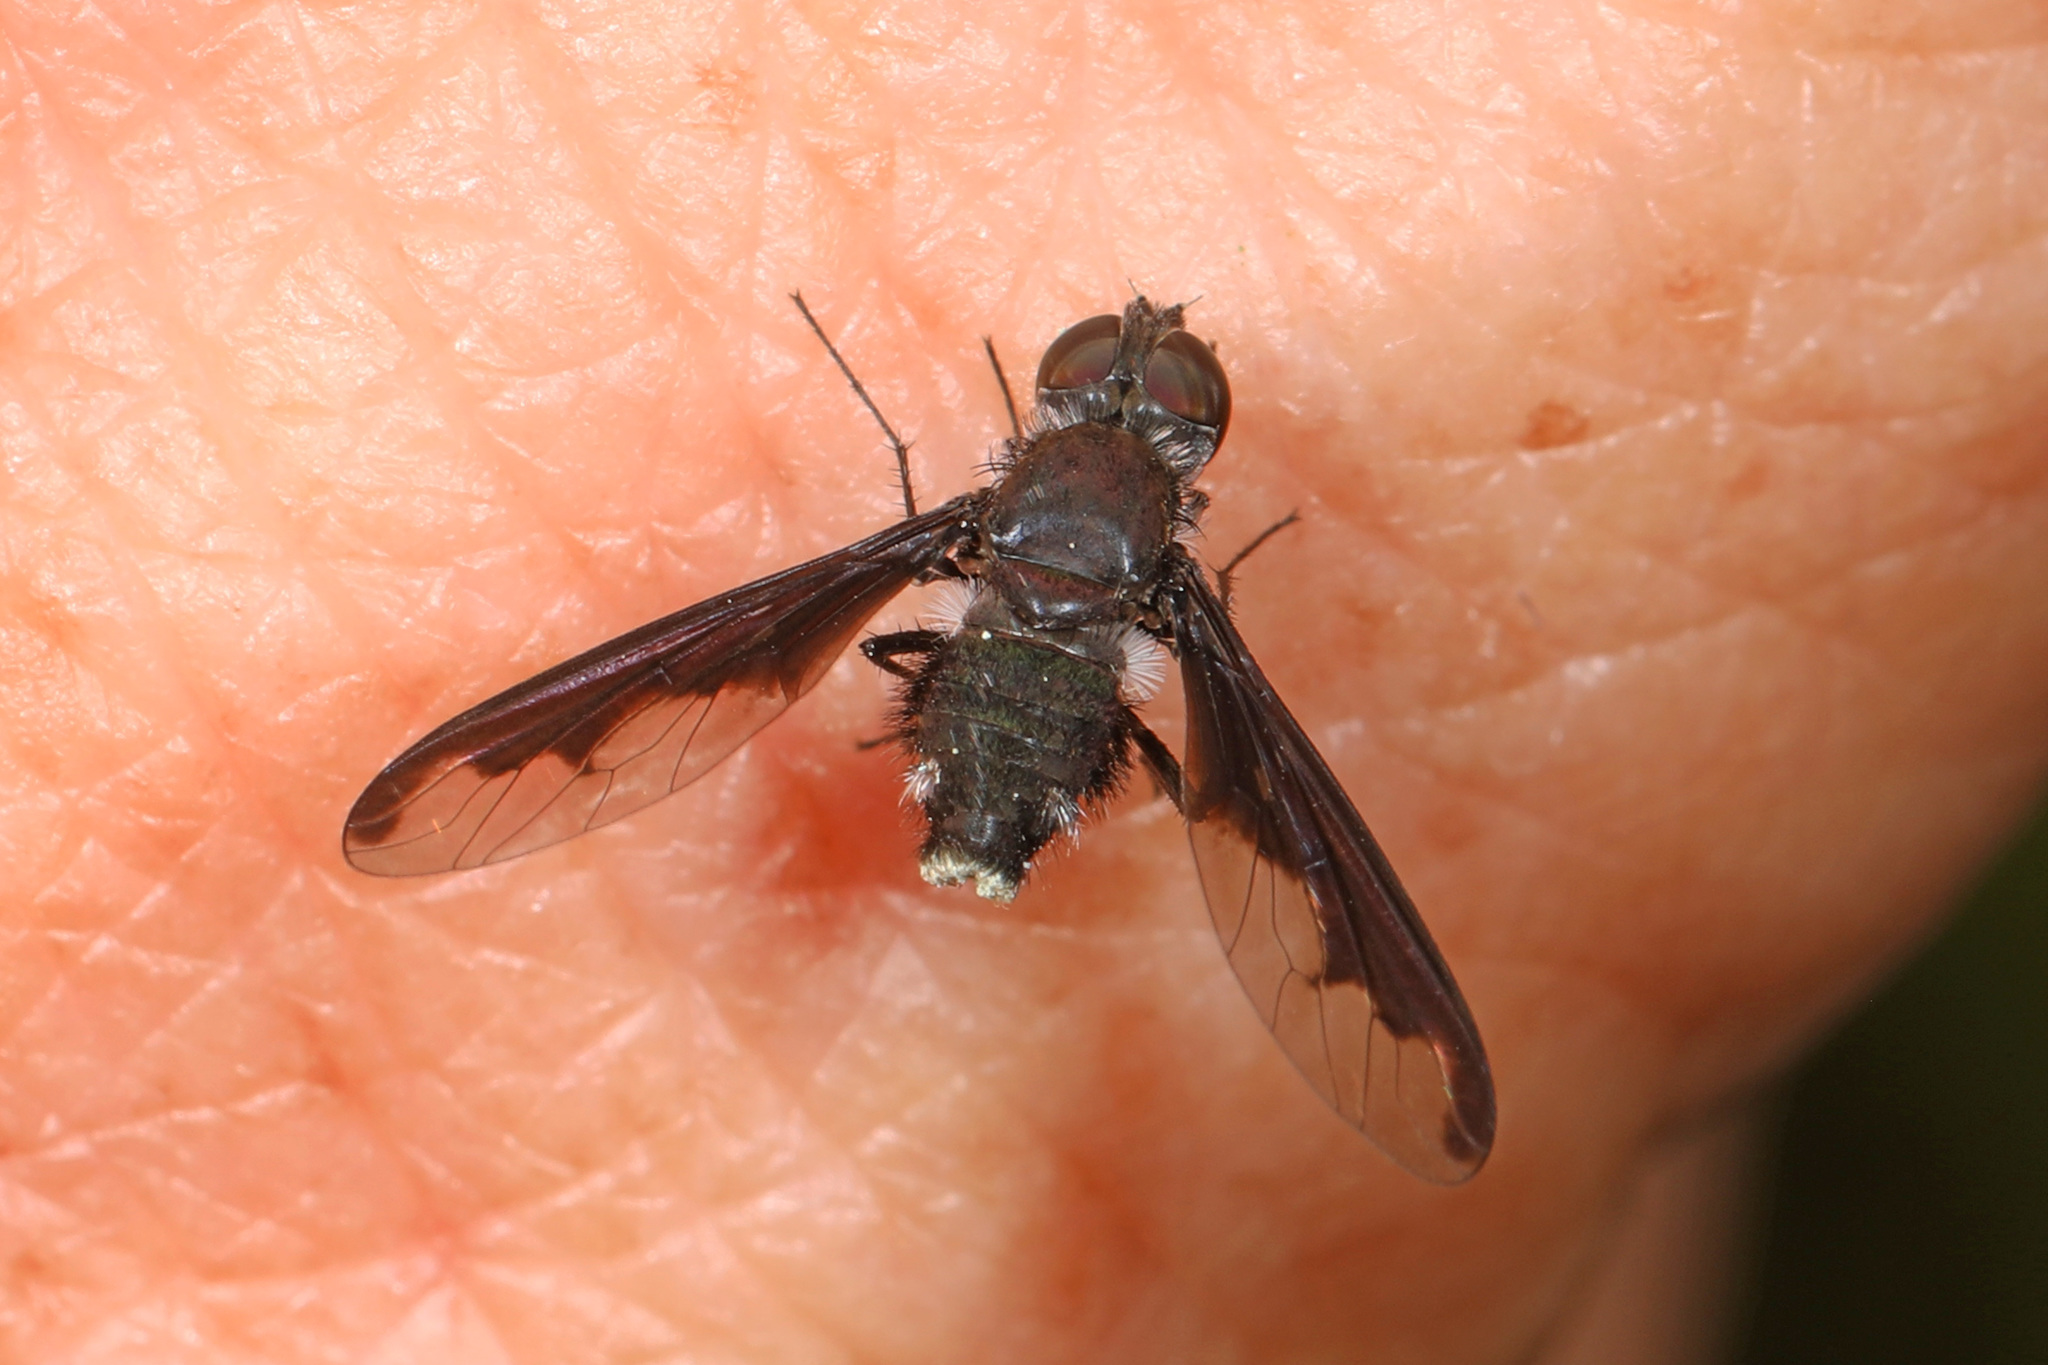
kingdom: Animalia
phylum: Arthropoda
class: Insecta
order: Diptera
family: Bombyliidae
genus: Anthrax
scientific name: Anthrax argyropygus
